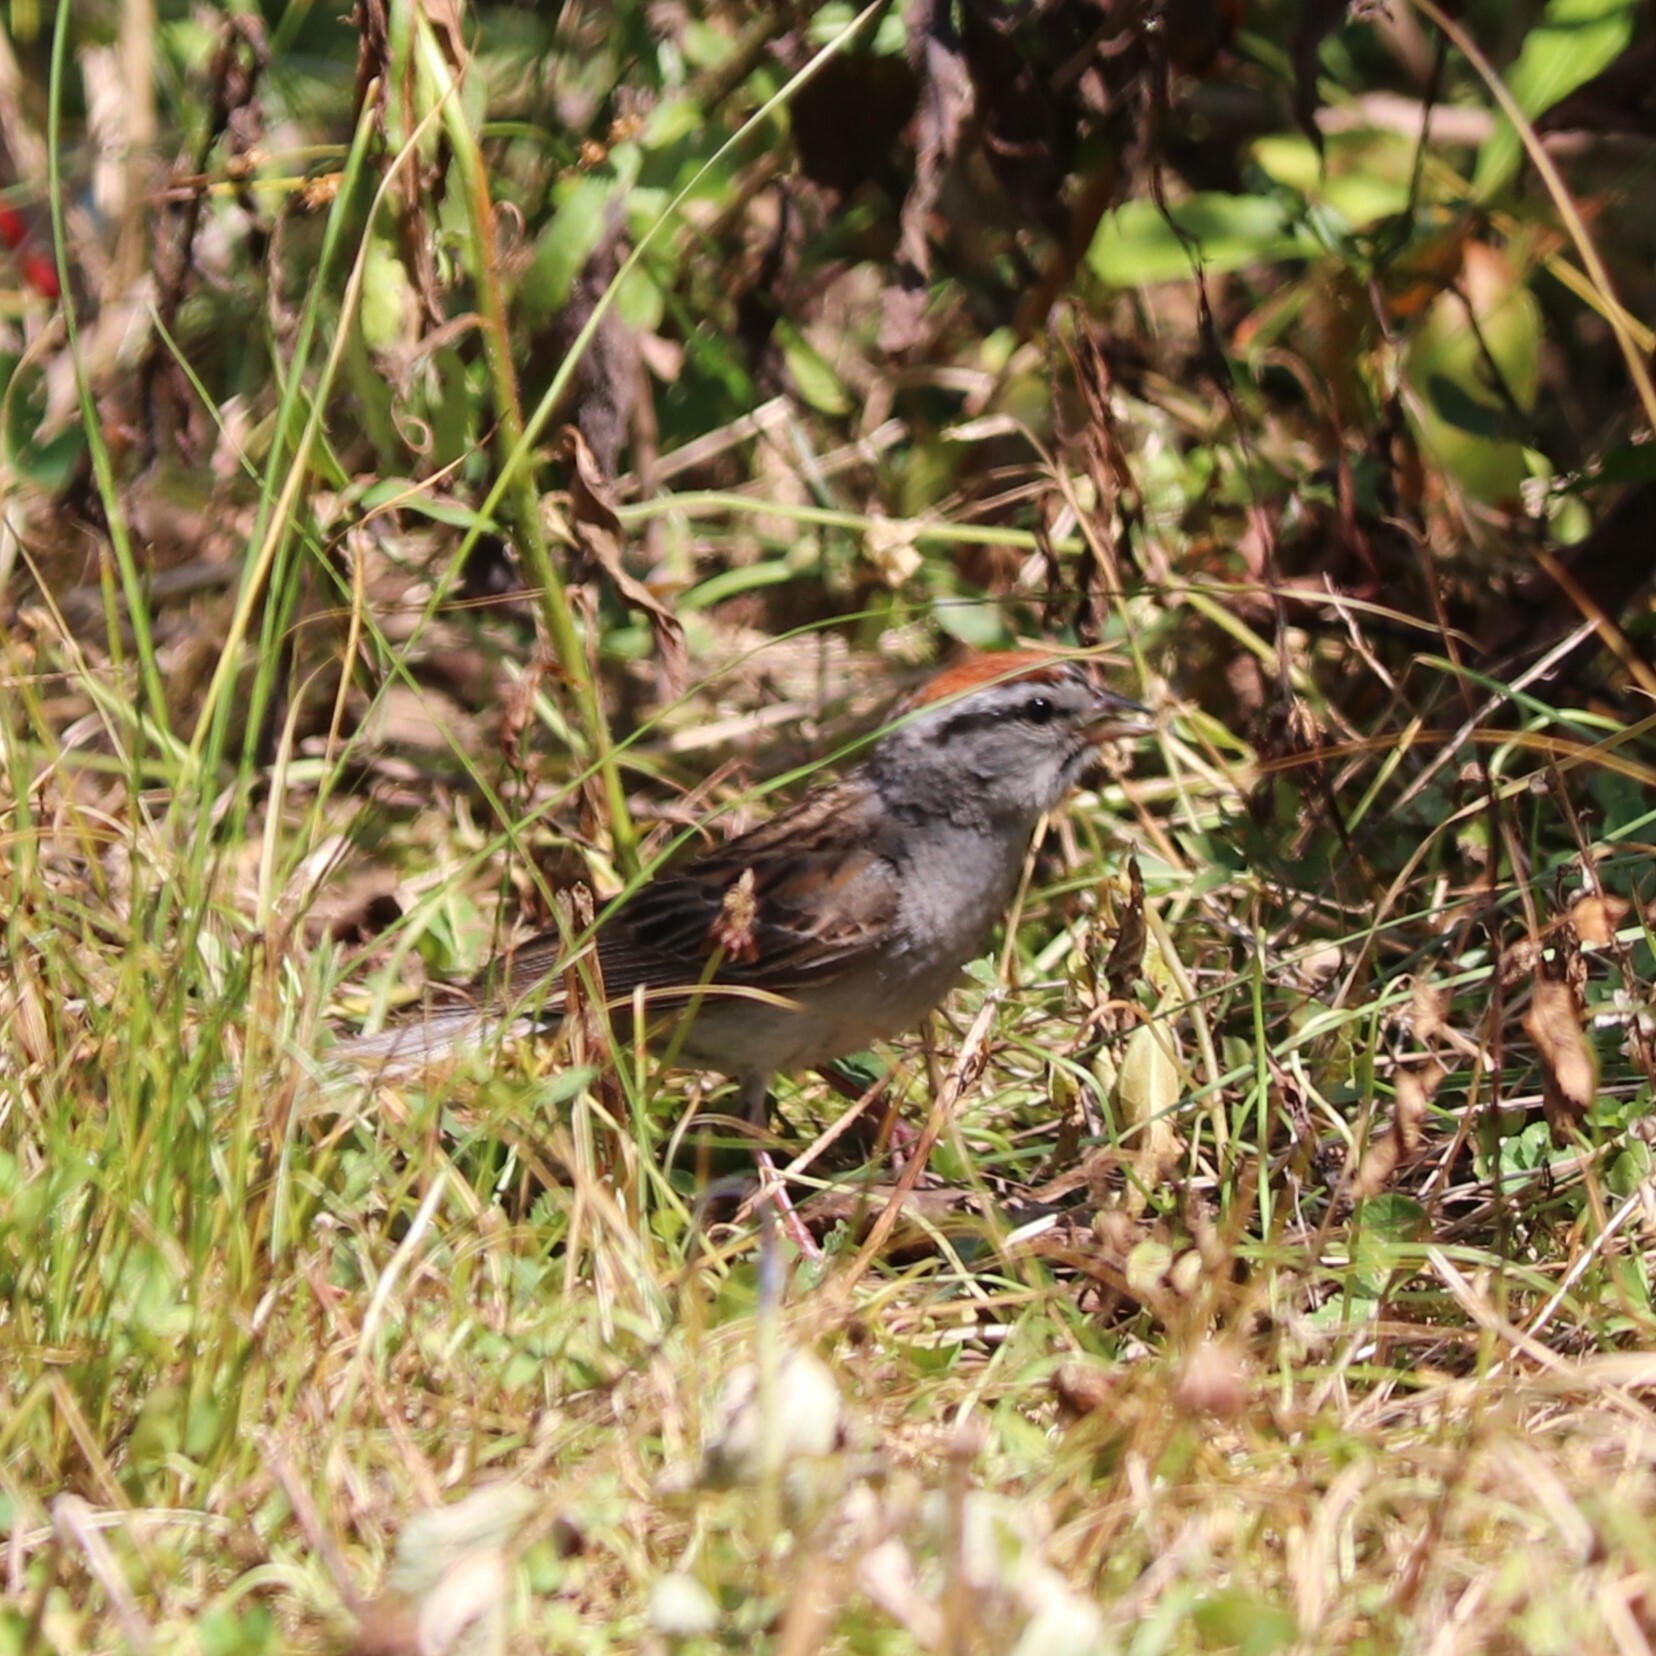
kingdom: Animalia
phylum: Chordata
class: Aves
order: Passeriformes
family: Passerellidae
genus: Spizella
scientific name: Spizella passerina
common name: Chipping sparrow
